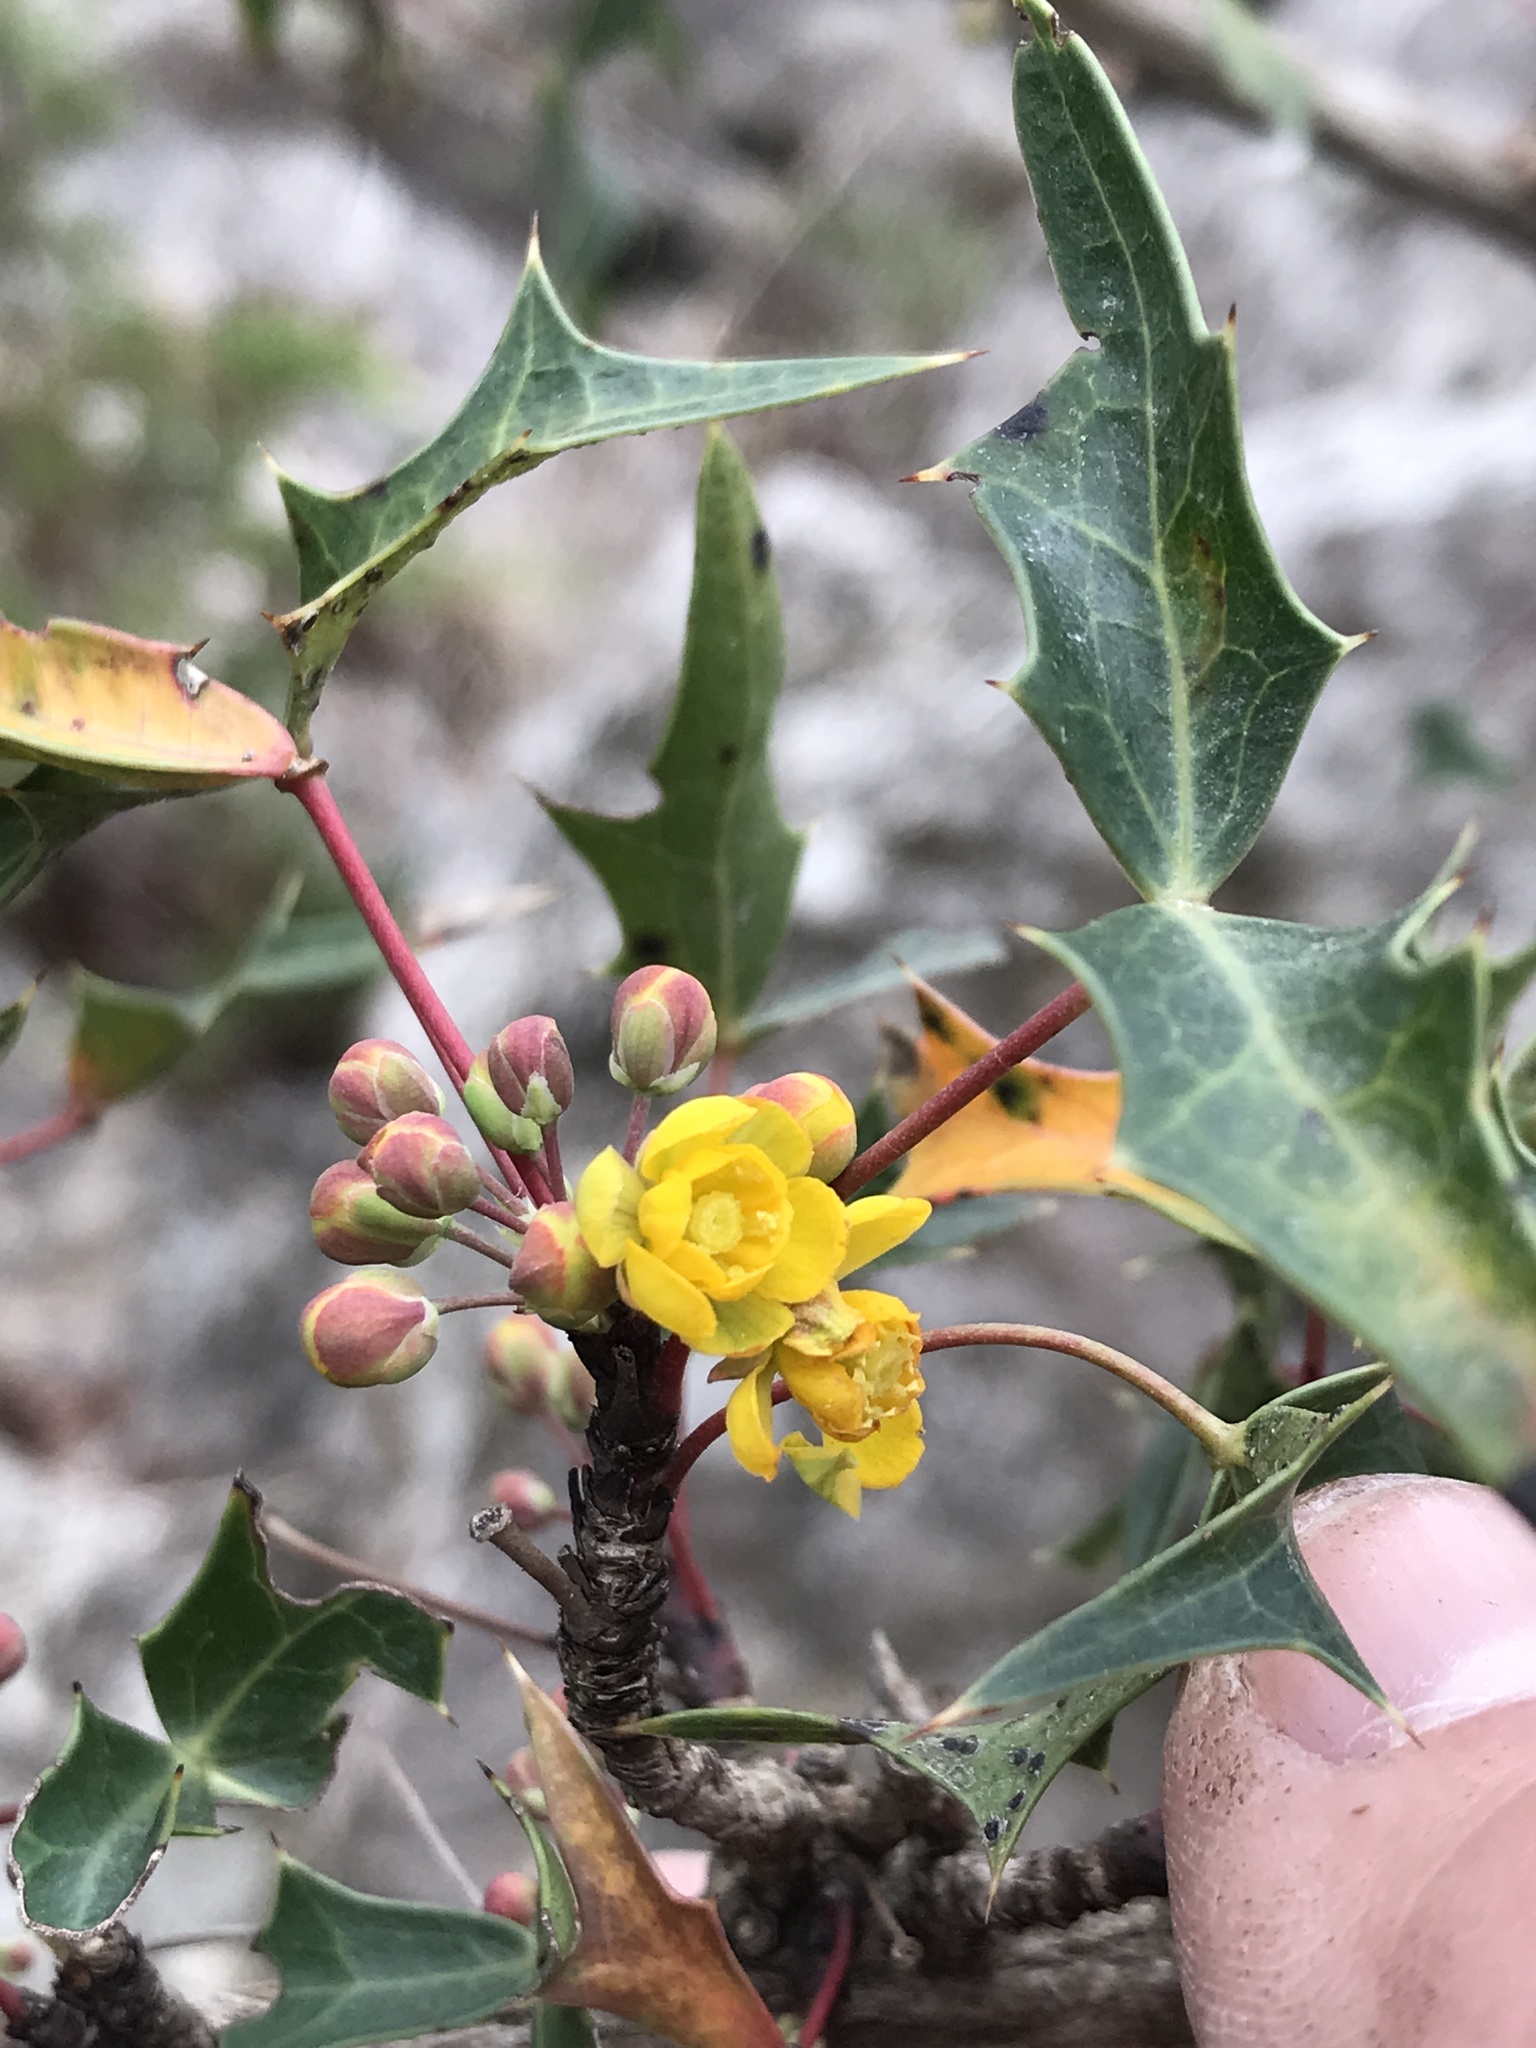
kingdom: Plantae
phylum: Tracheophyta
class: Magnoliopsida
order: Ranunculales
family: Berberidaceae
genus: Alloberberis
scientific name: Alloberberis trifoliolata
